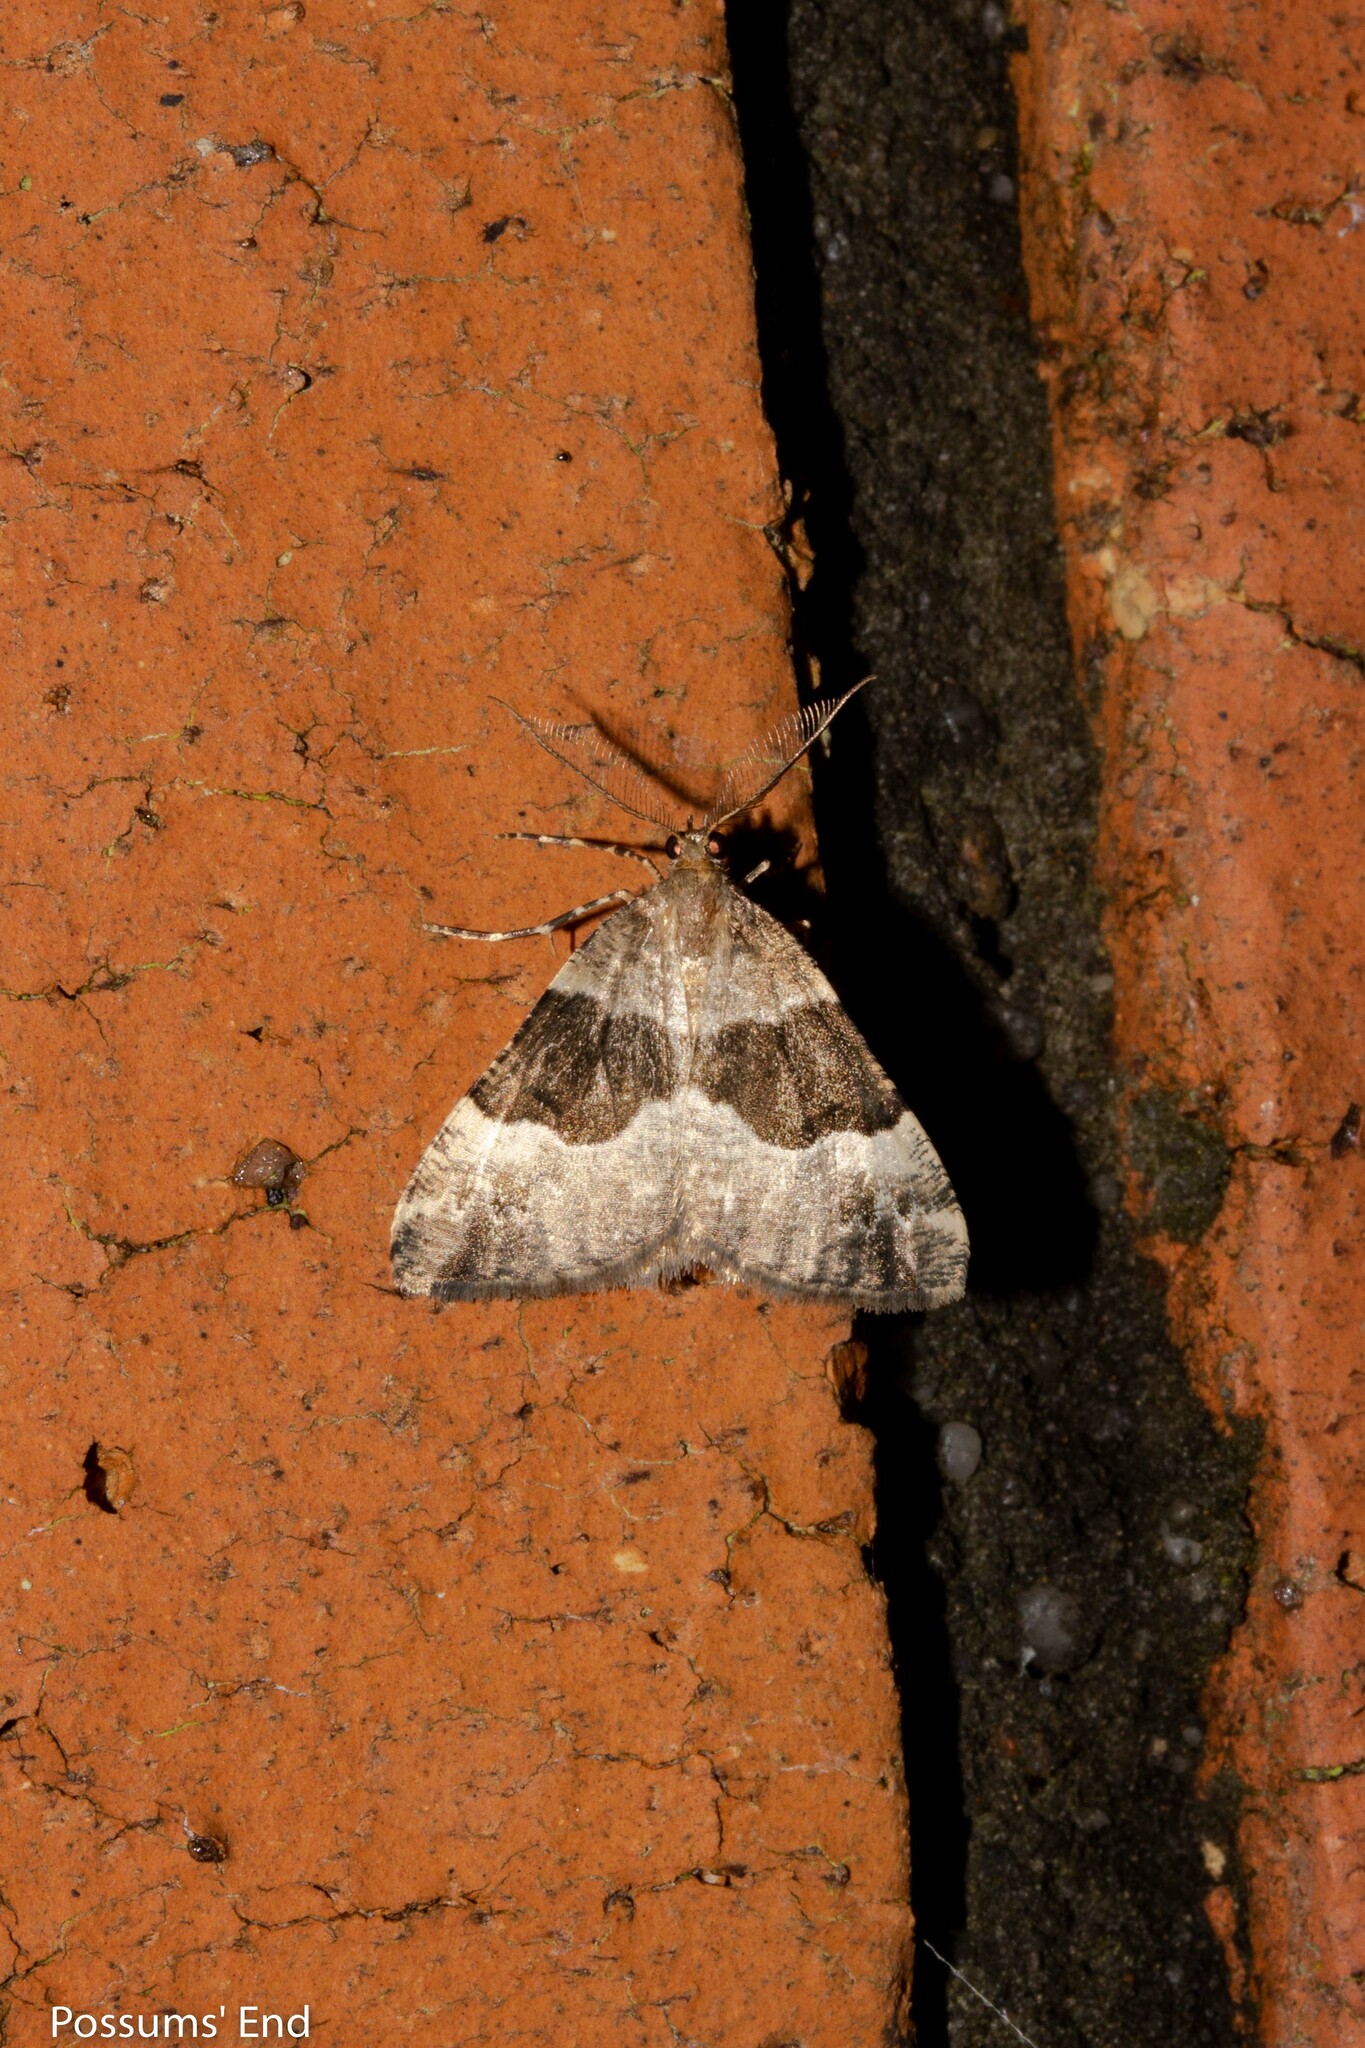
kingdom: Animalia
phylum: Arthropoda
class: Insecta
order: Lepidoptera
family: Geometridae
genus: Pseudocoremia
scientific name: Pseudocoremia
